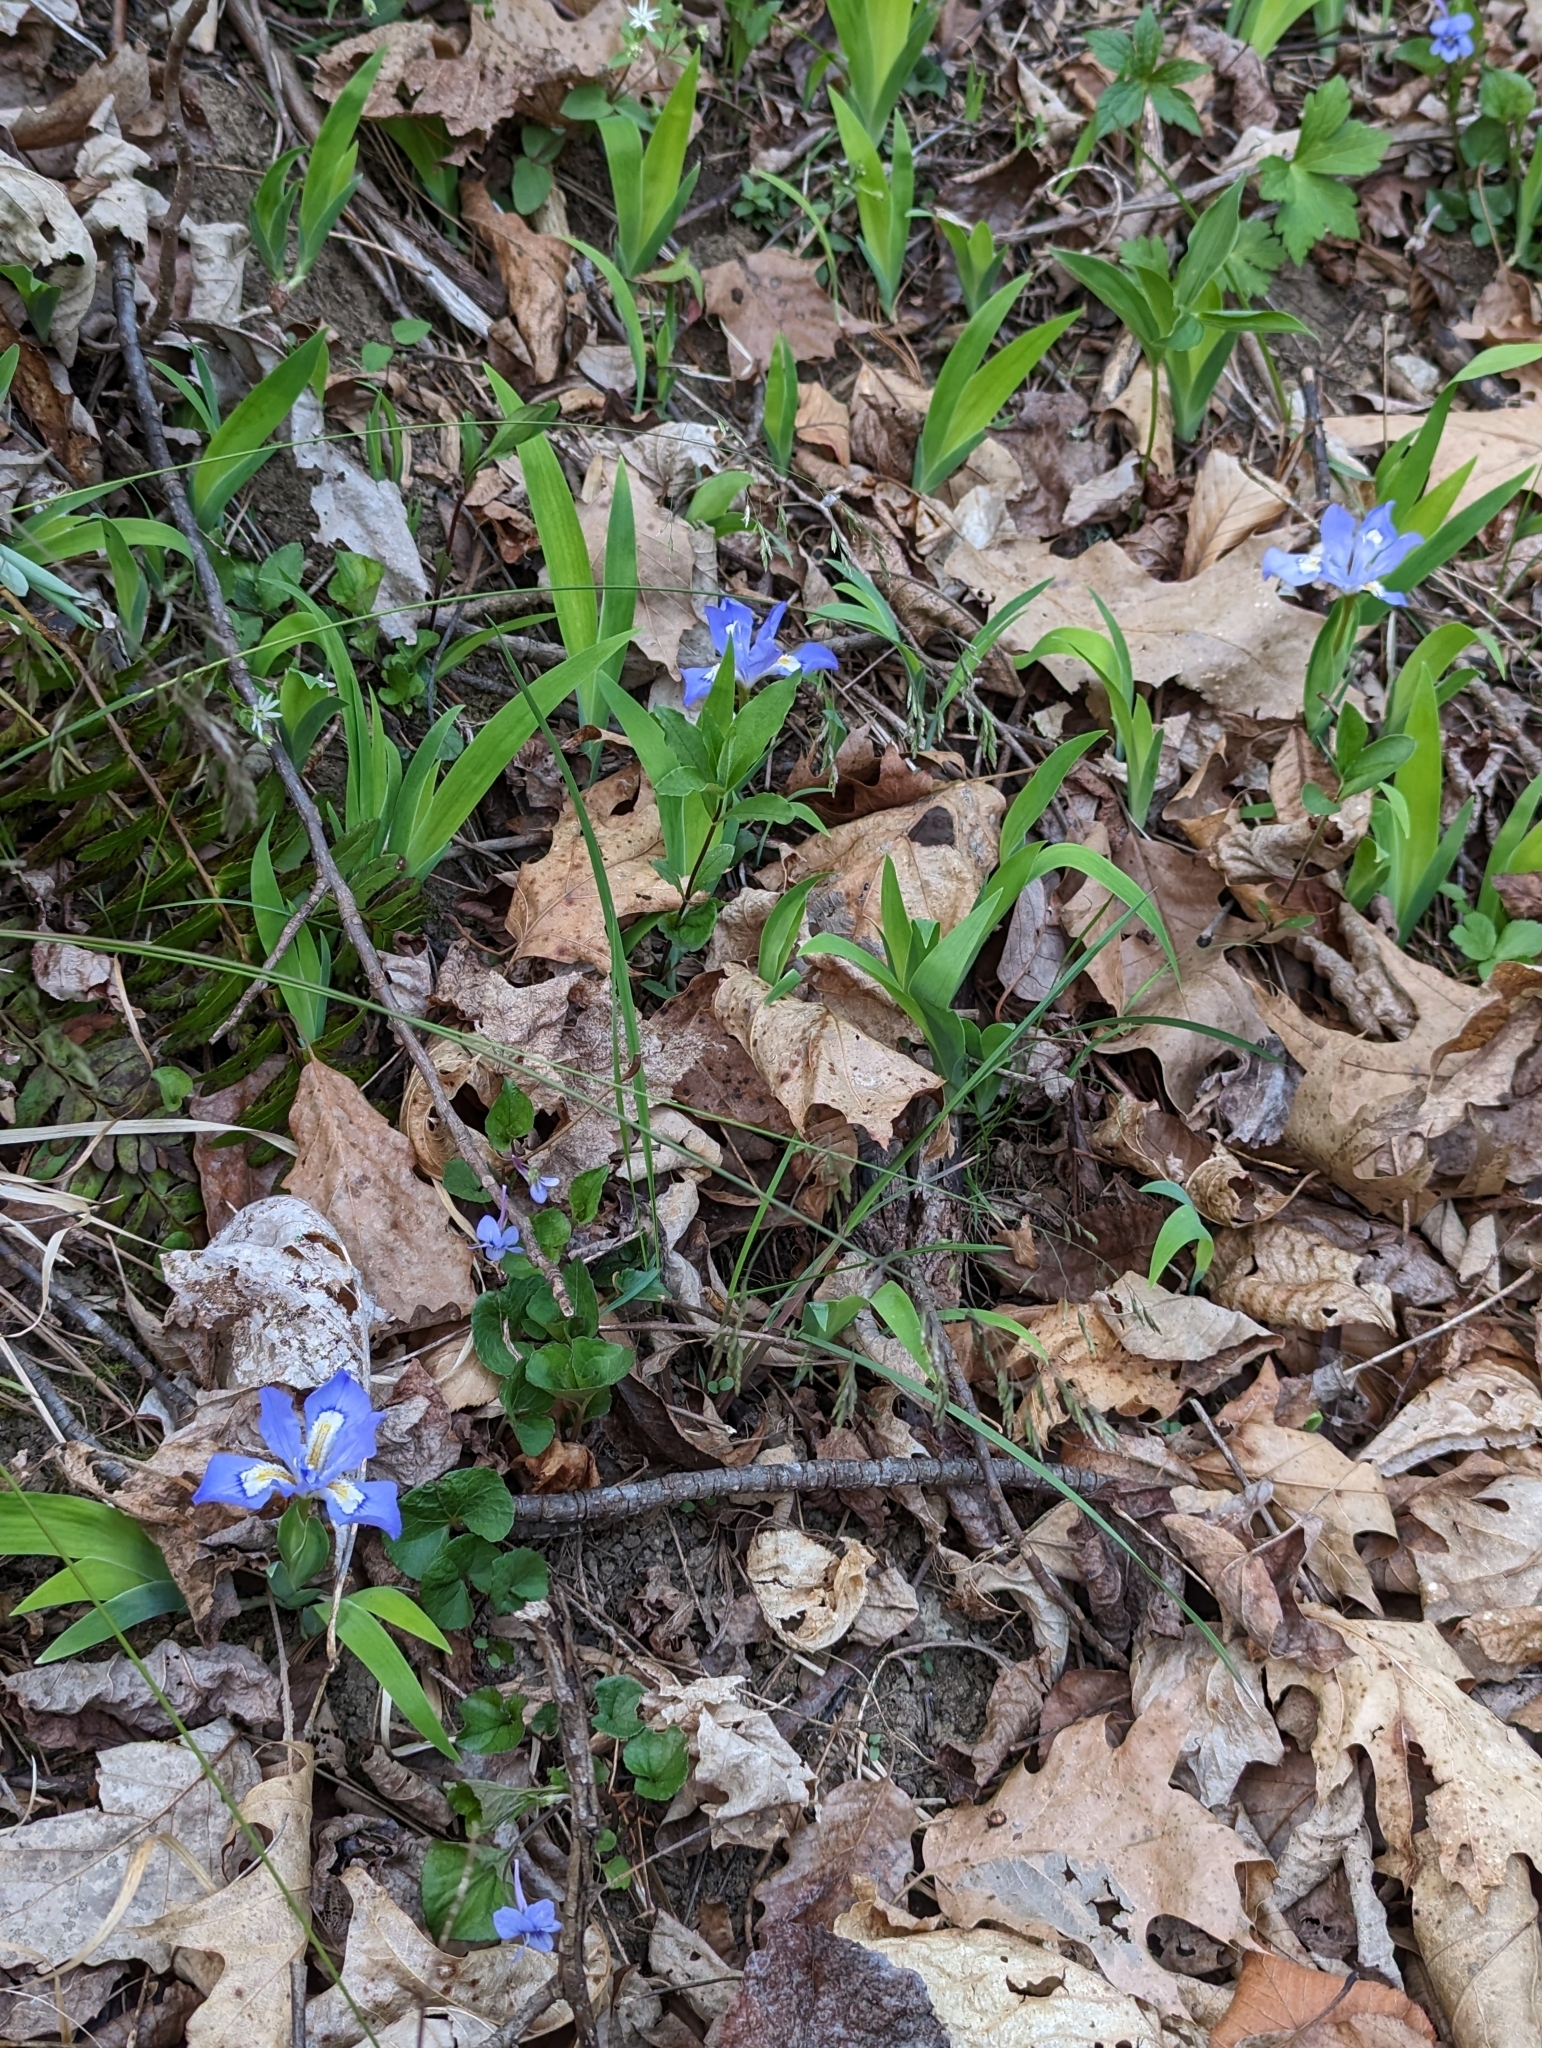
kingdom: Plantae
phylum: Tracheophyta
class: Liliopsida
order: Asparagales
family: Iridaceae
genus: Iris
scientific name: Iris cristata
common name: Crested iris
